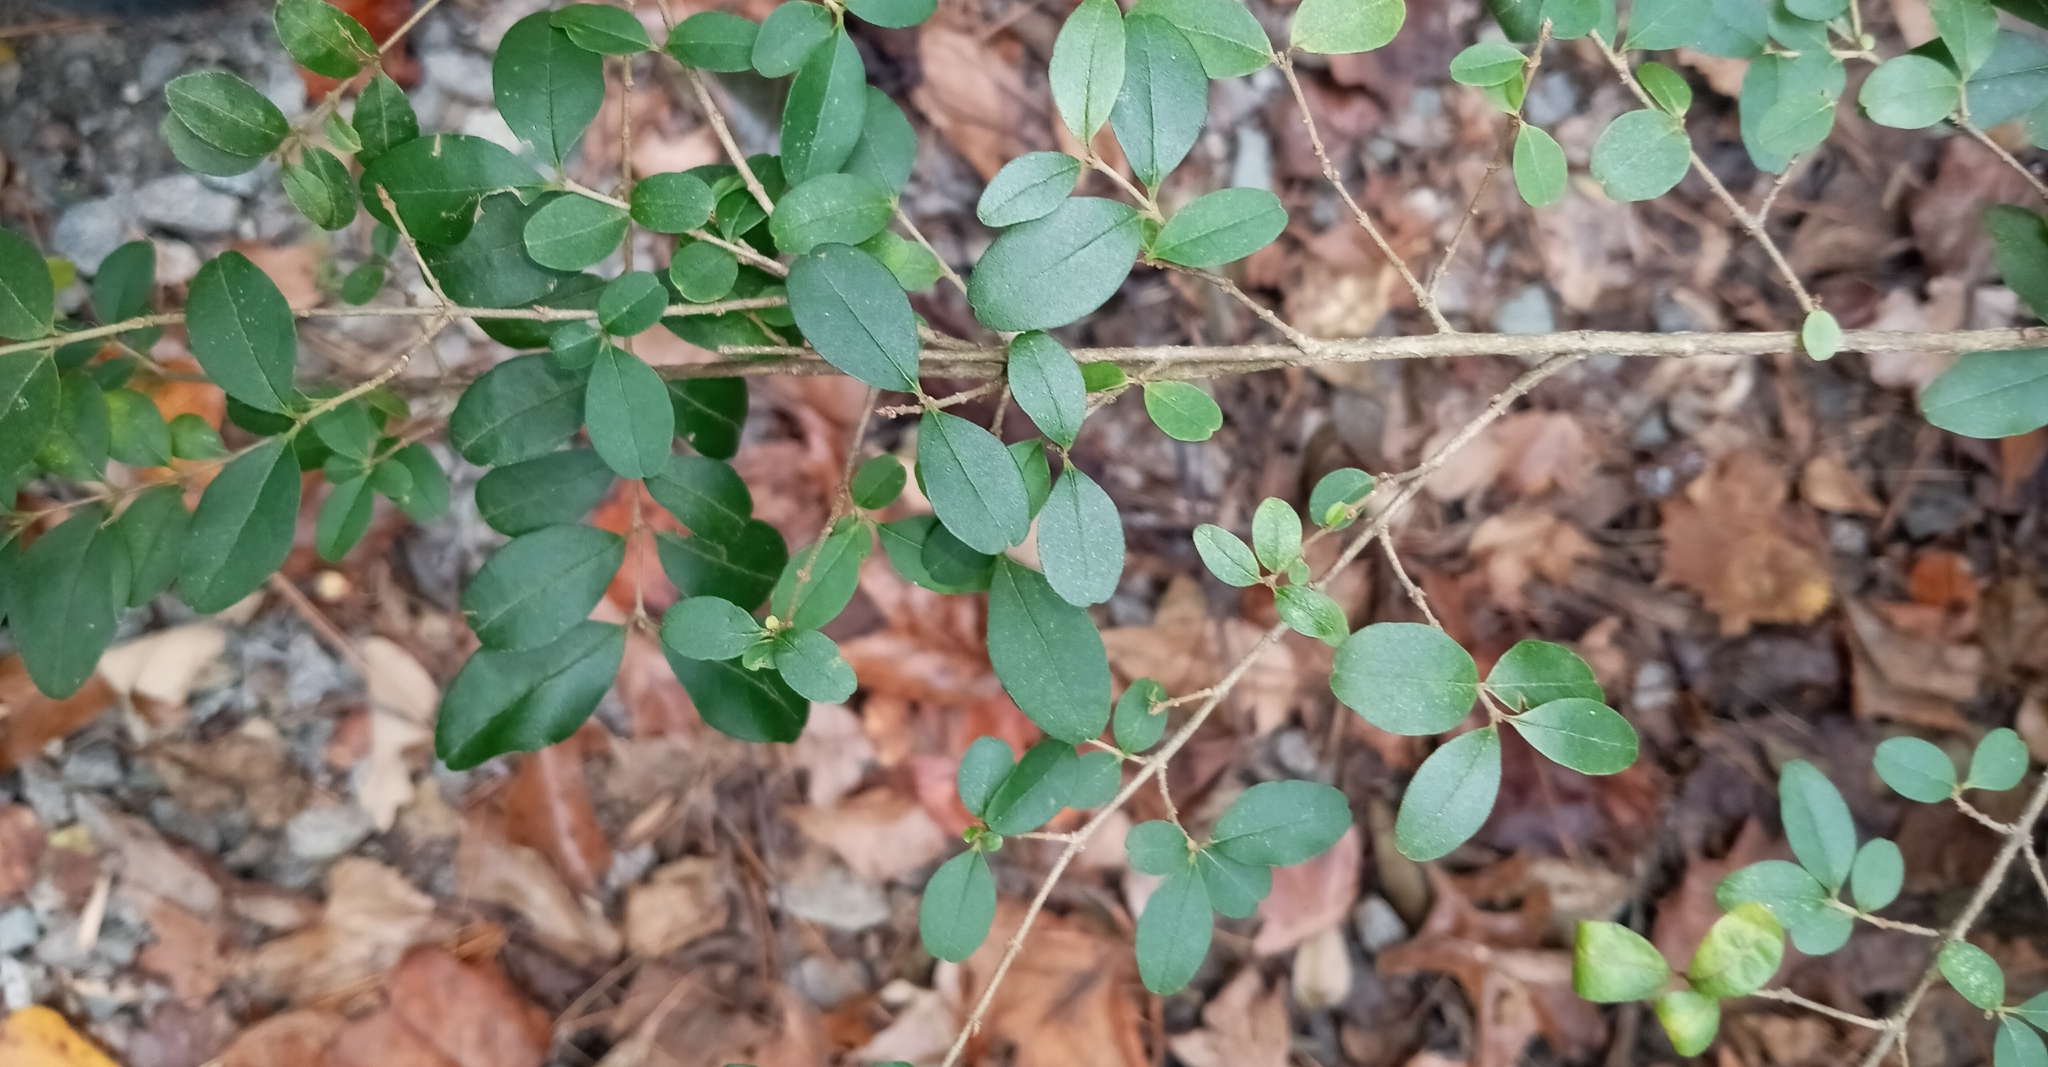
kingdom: Plantae
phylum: Tracheophyta
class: Magnoliopsida
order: Lamiales
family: Oleaceae
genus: Ligustrum
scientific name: Ligustrum sinense
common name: Chinese privet
